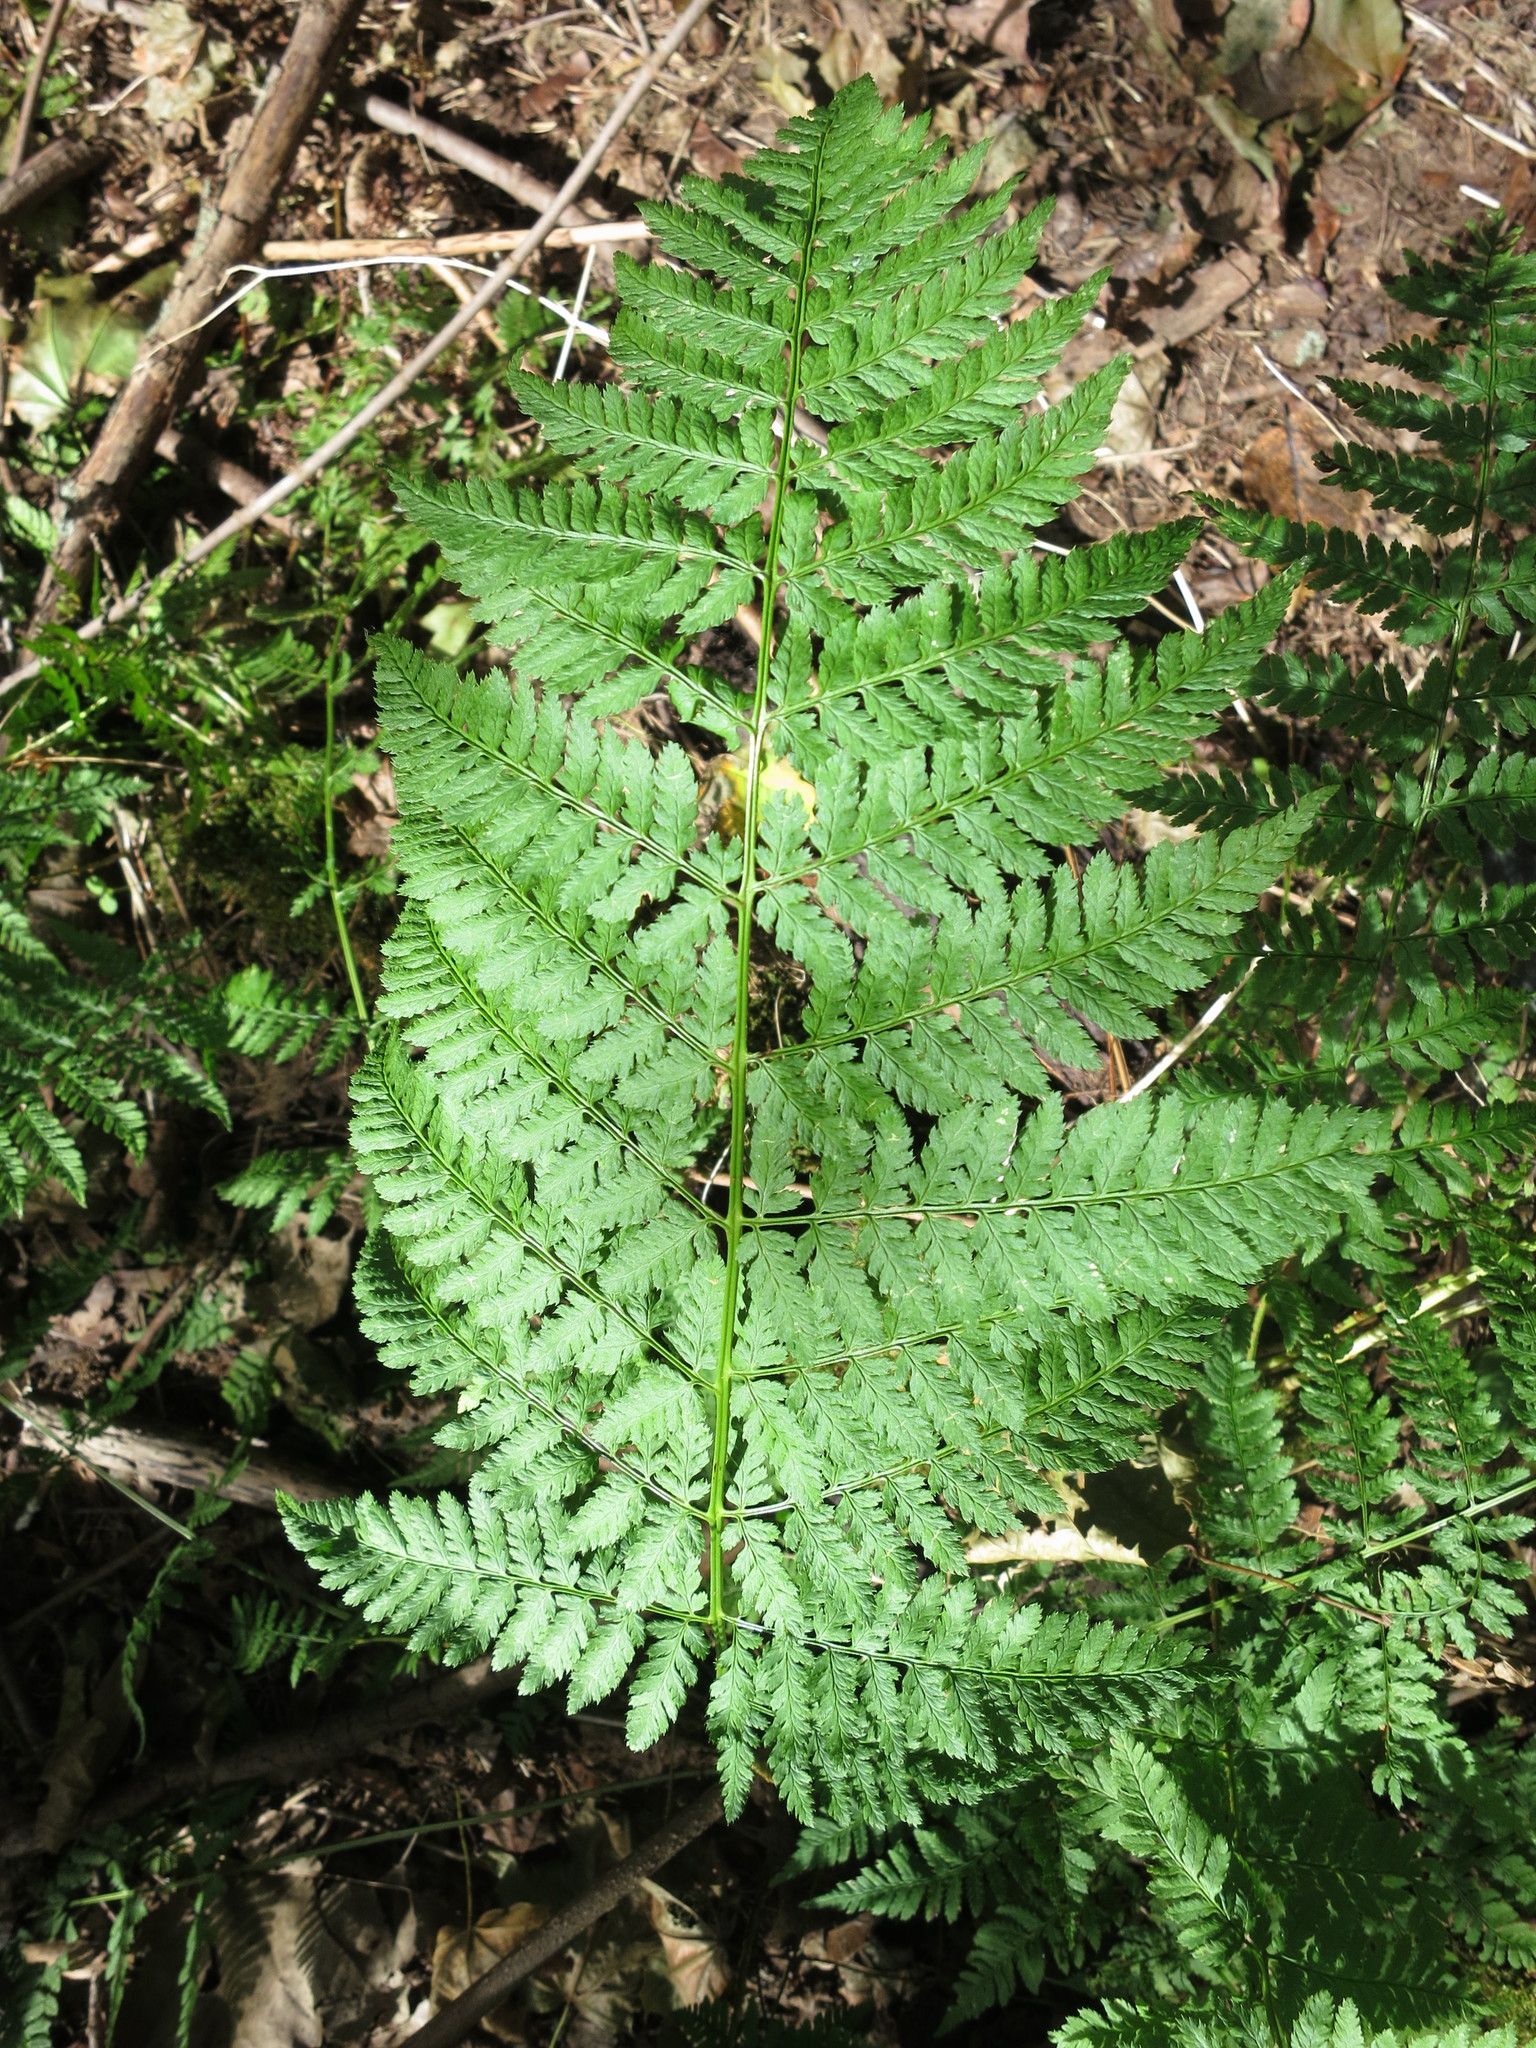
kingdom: Plantae
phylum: Tracheophyta
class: Polypodiopsida
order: Polypodiales
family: Dryopteridaceae
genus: Dryopteris
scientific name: Dryopteris intermedia
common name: Evergreen wood fern
